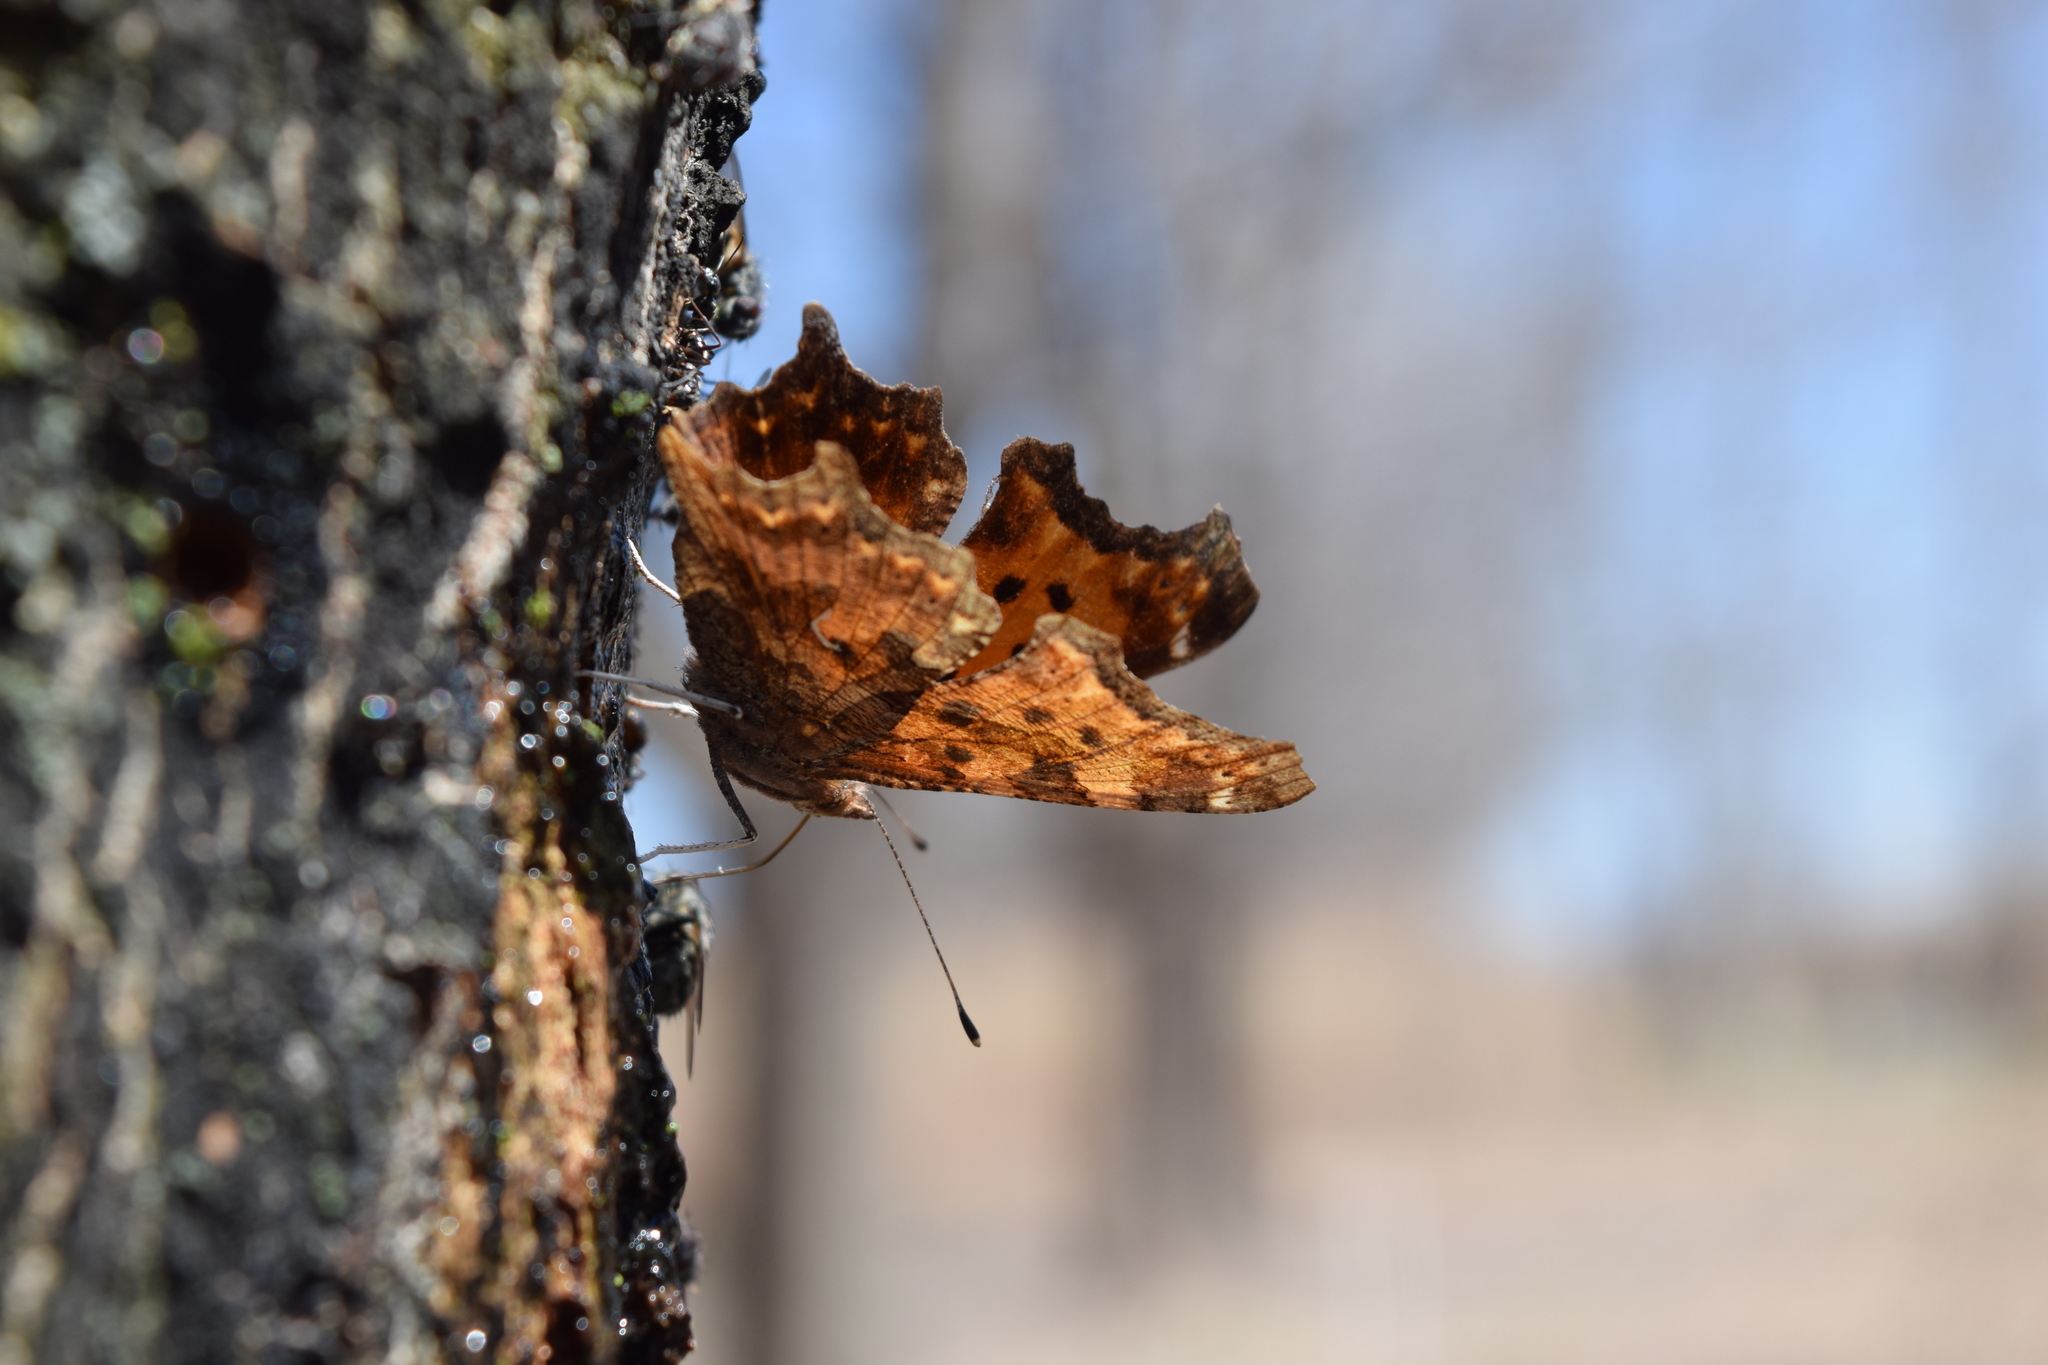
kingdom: Animalia
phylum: Arthropoda
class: Insecta
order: Lepidoptera
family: Nymphalidae
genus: Polygonia
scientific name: Polygonia comma
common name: Eastern comma
